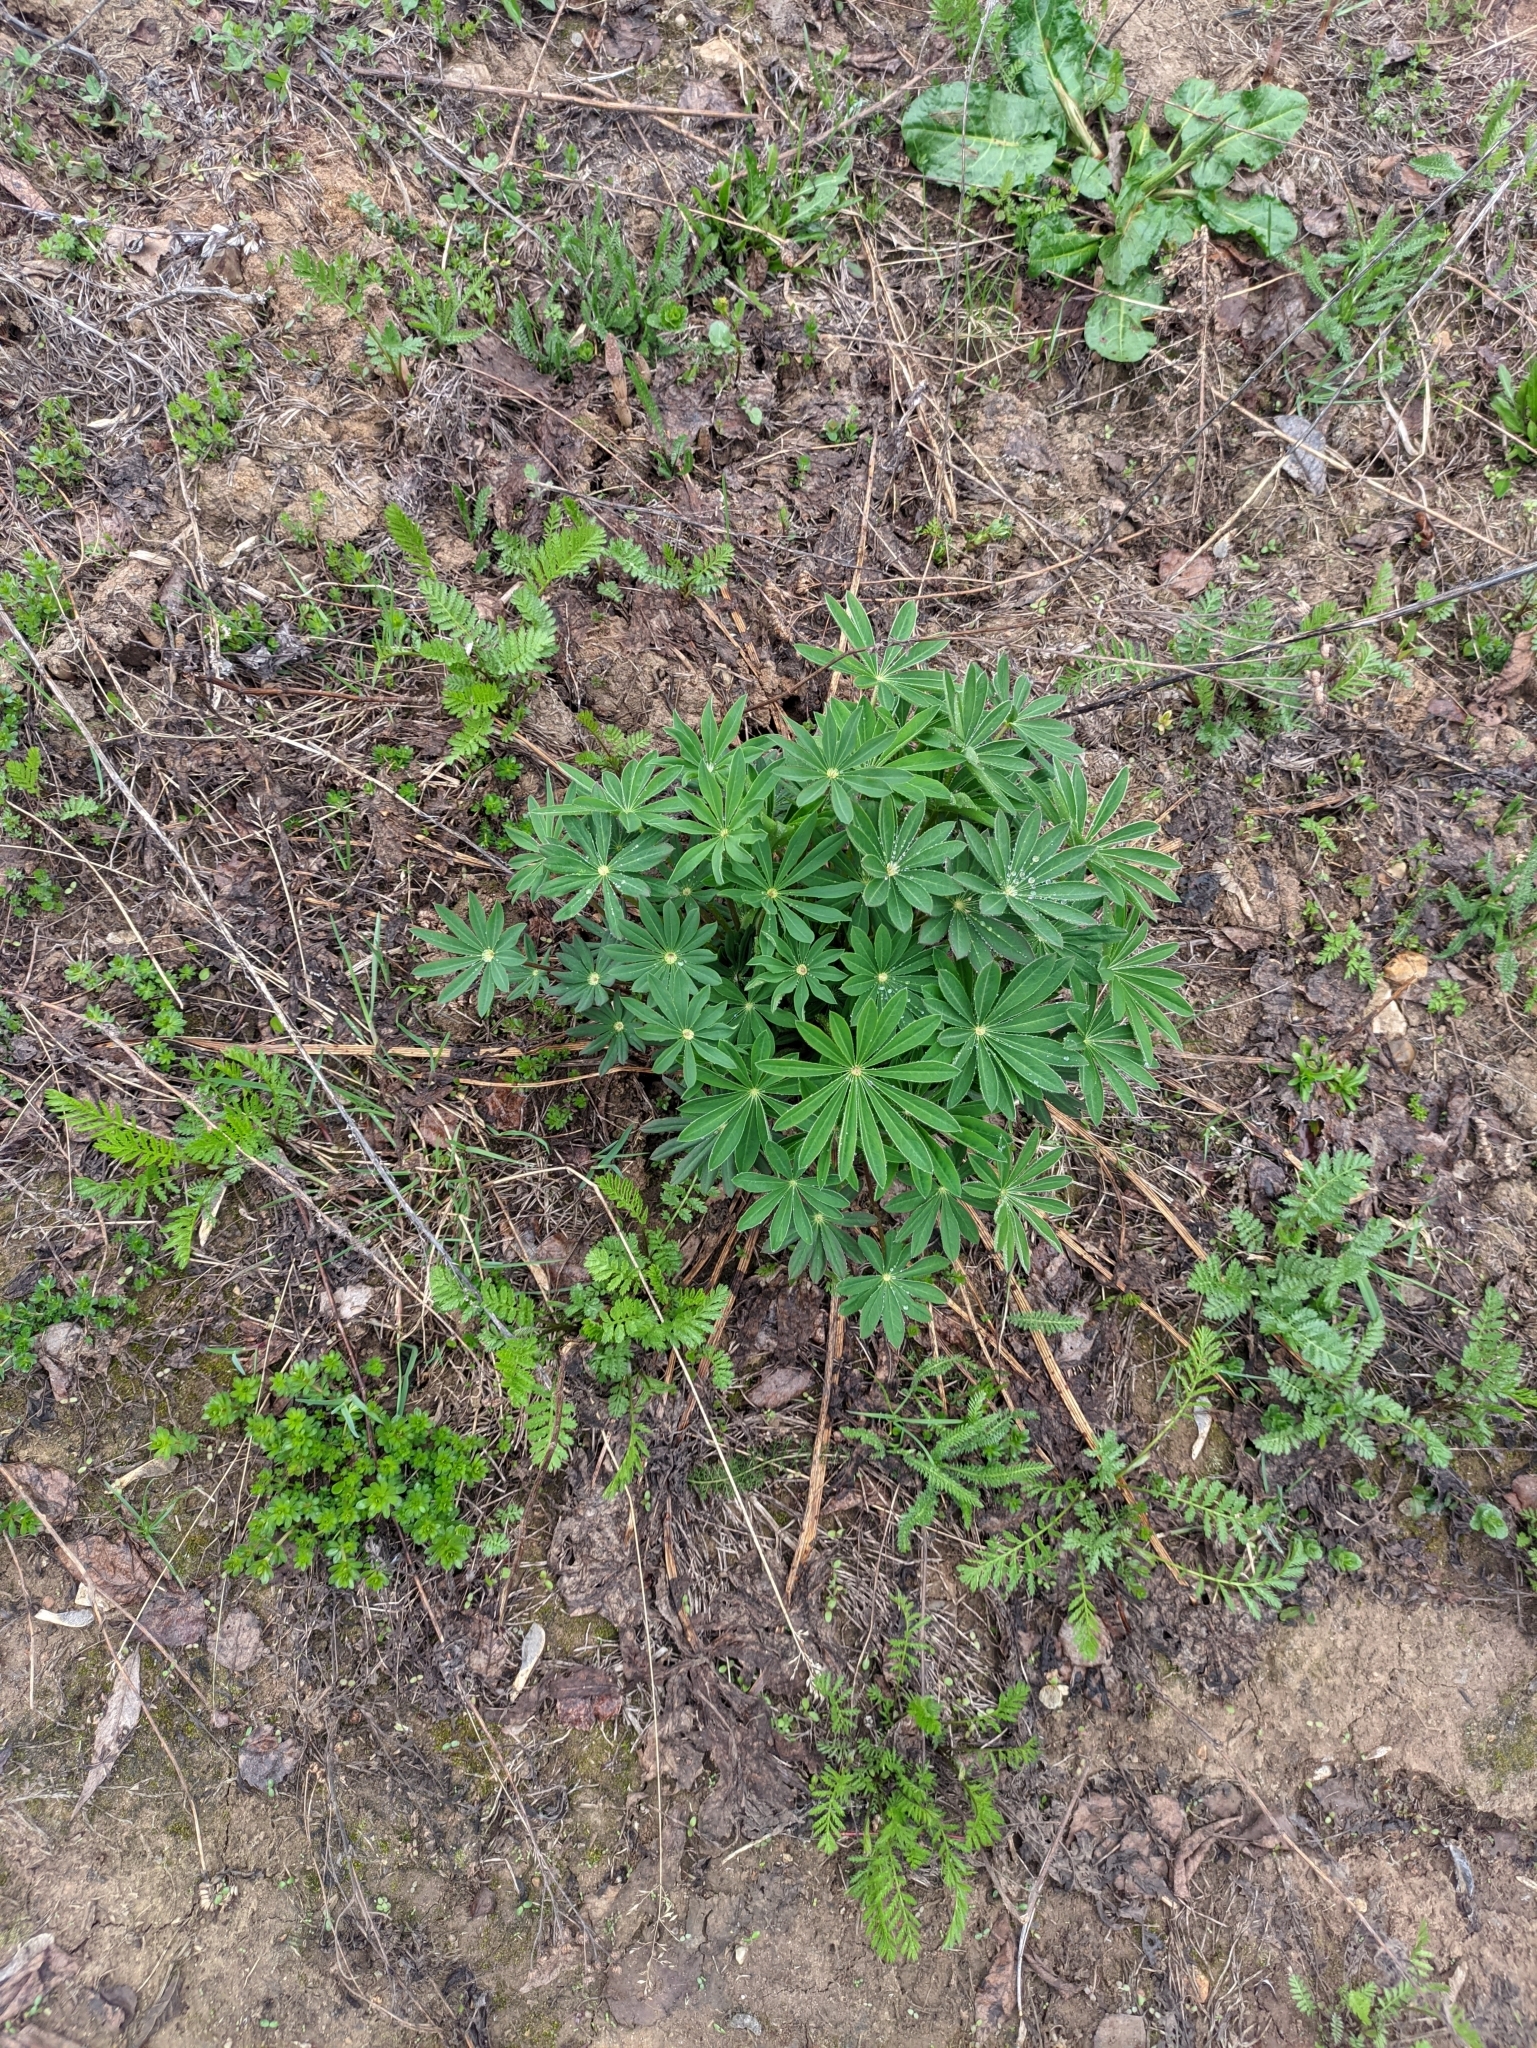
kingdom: Plantae
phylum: Tracheophyta
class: Magnoliopsida
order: Fabales
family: Fabaceae
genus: Lupinus
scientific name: Lupinus polyphyllus
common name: Garden lupin
